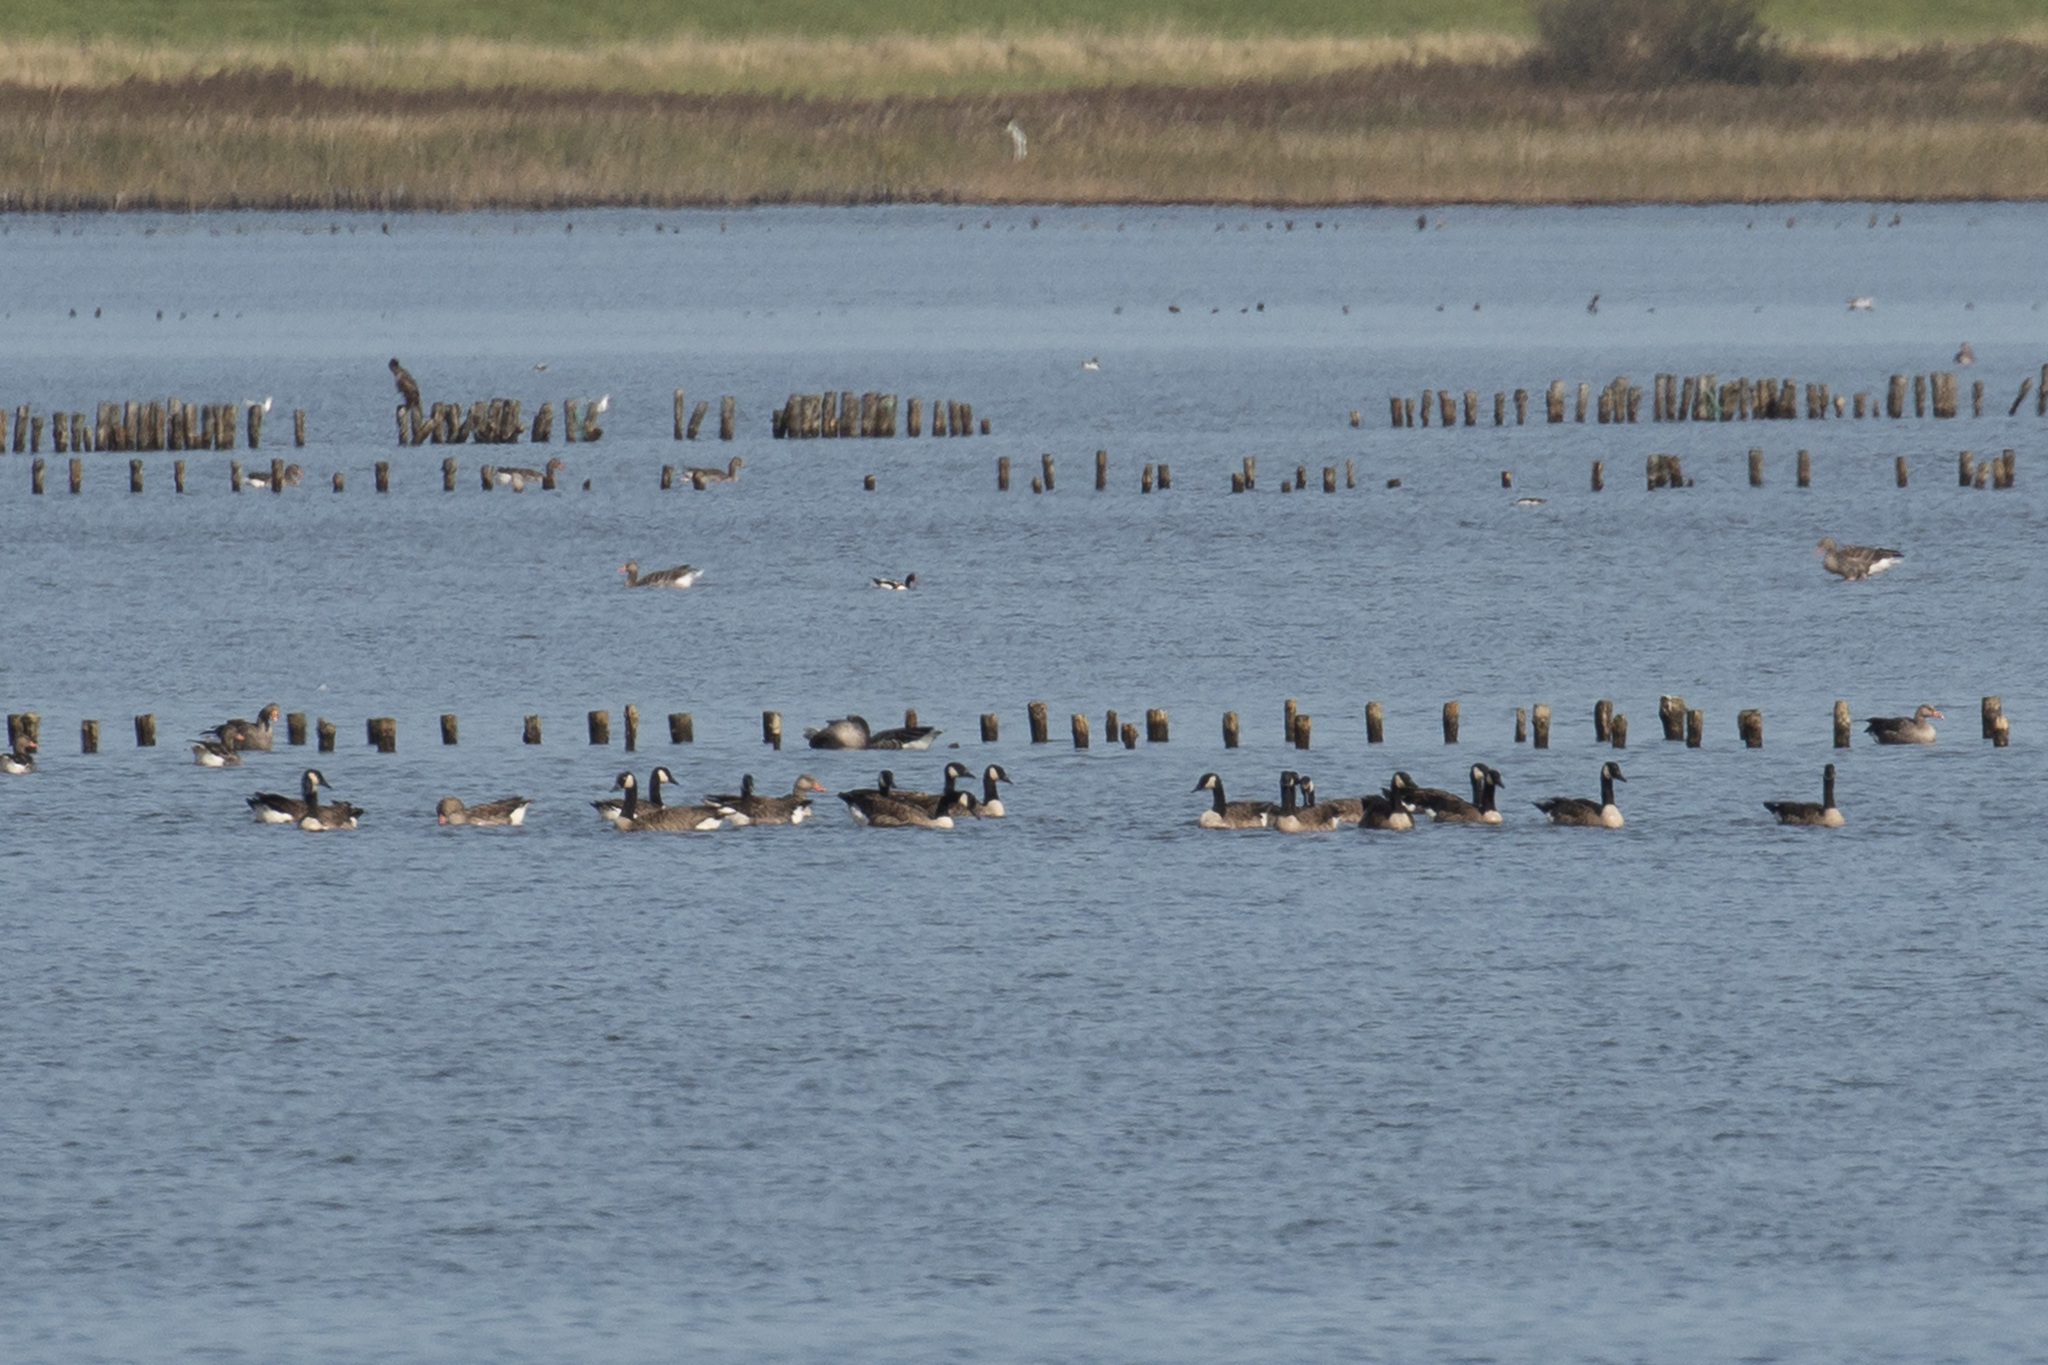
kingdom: Animalia
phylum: Chordata
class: Aves
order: Anseriformes
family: Anatidae
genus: Branta
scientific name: Branta canadensis
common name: Canada goose
